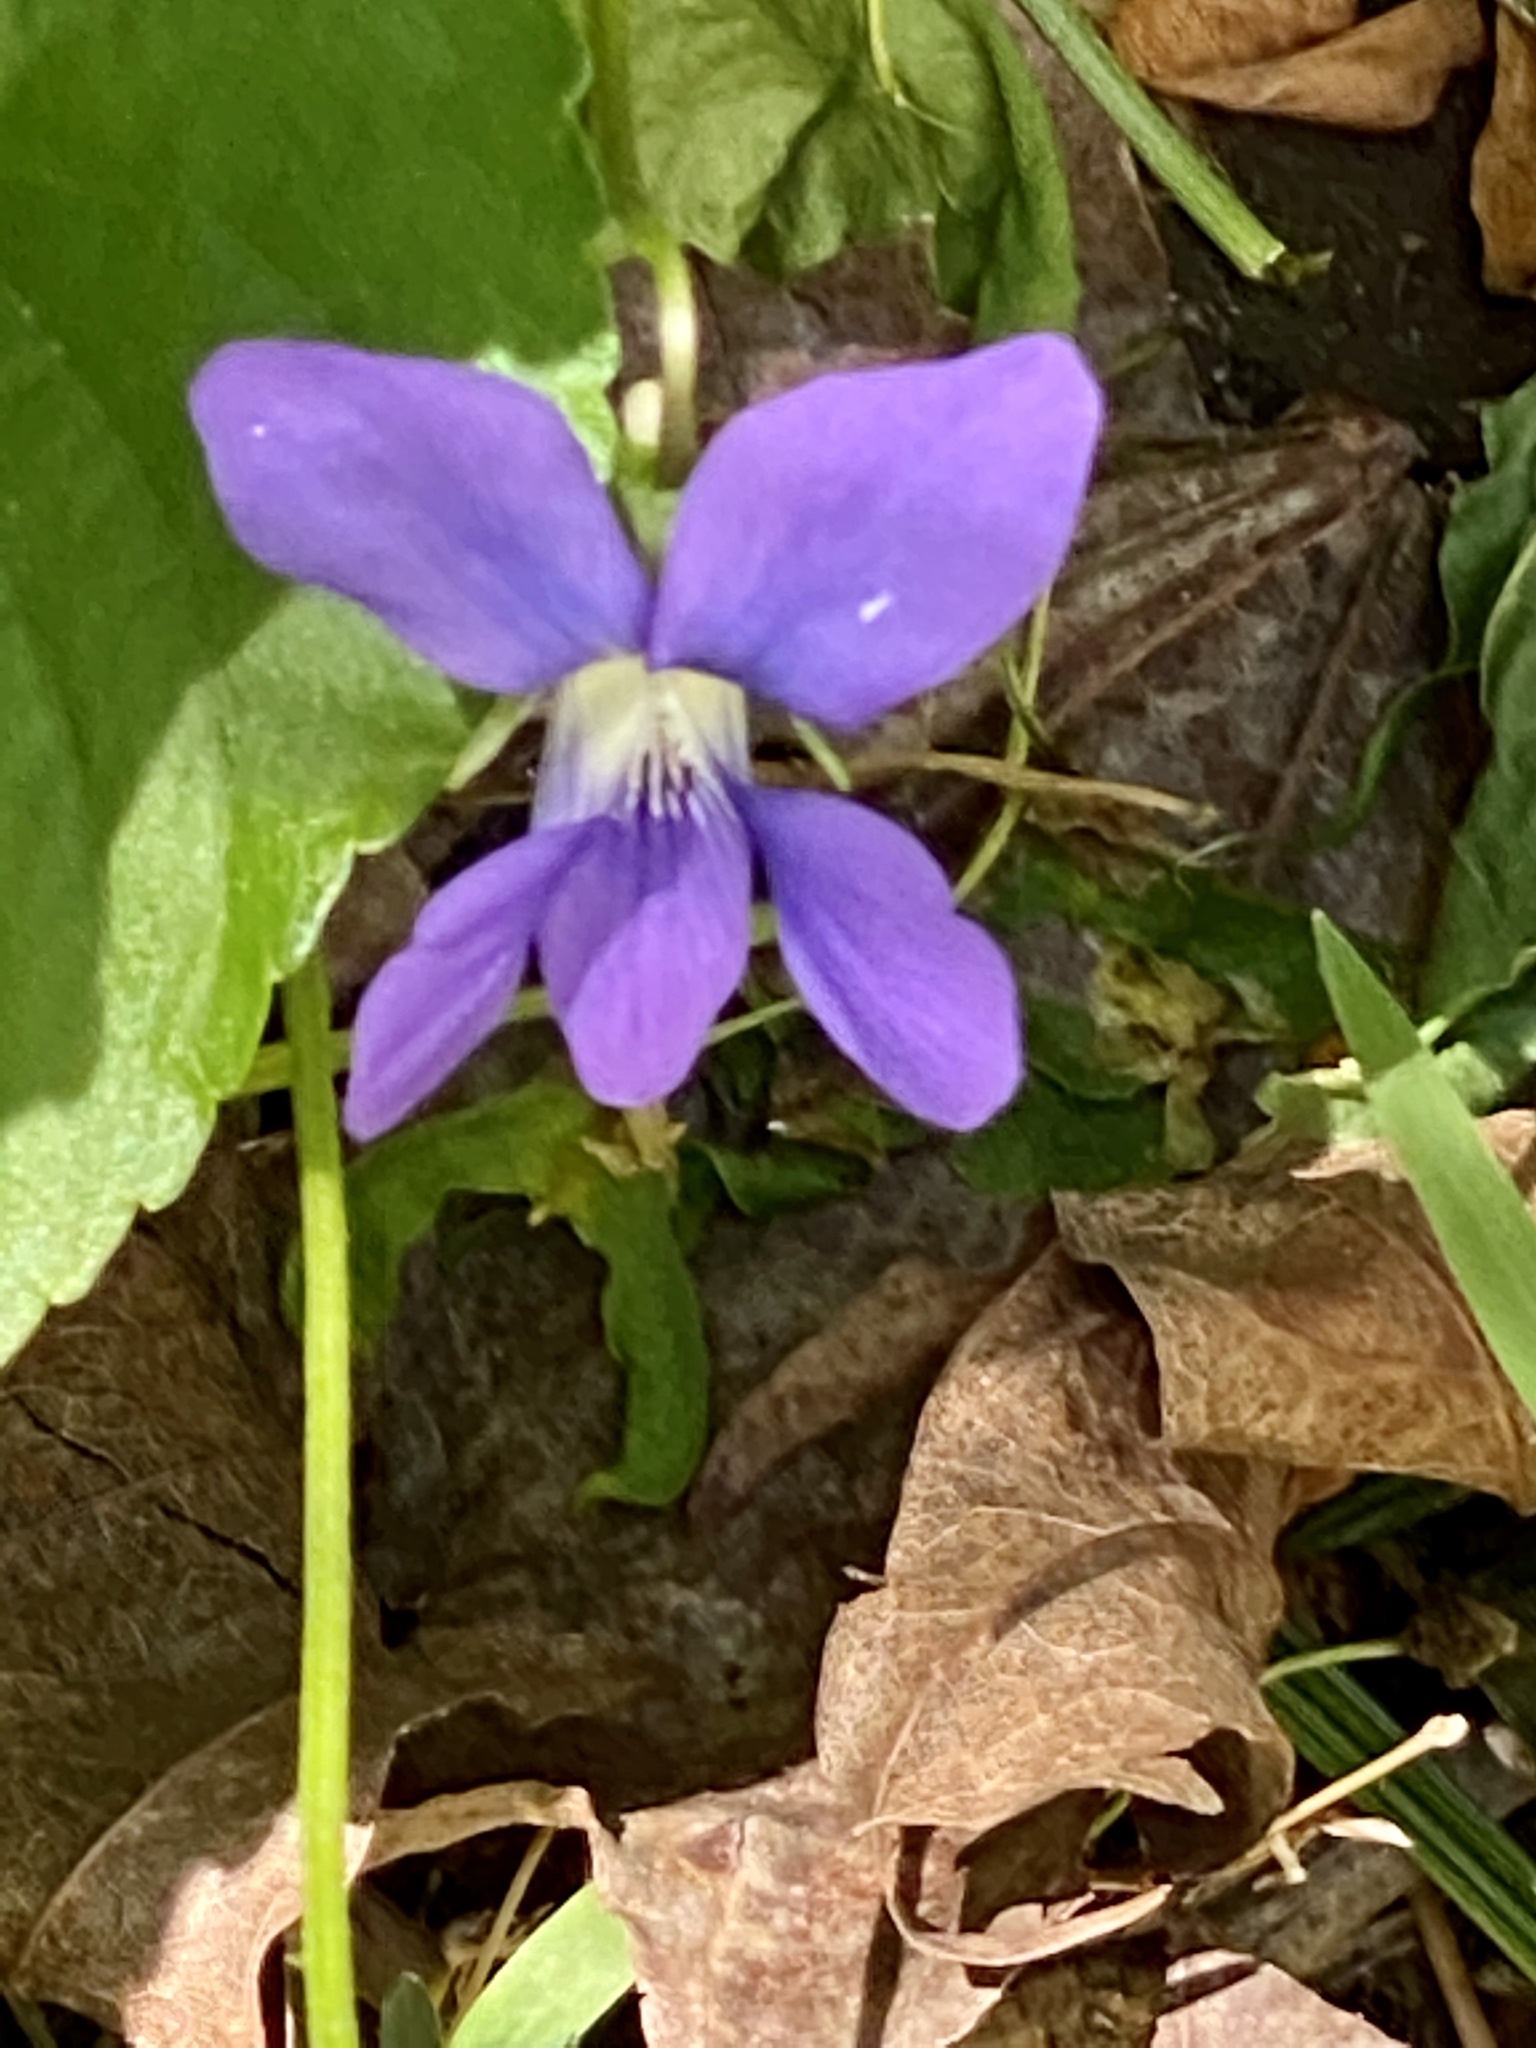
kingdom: Plantae
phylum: Tracheophyta
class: Magnoliopsida
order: Malpighiales
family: Violaceae
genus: Viola
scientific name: Viola sororia
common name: Dooryard violet
